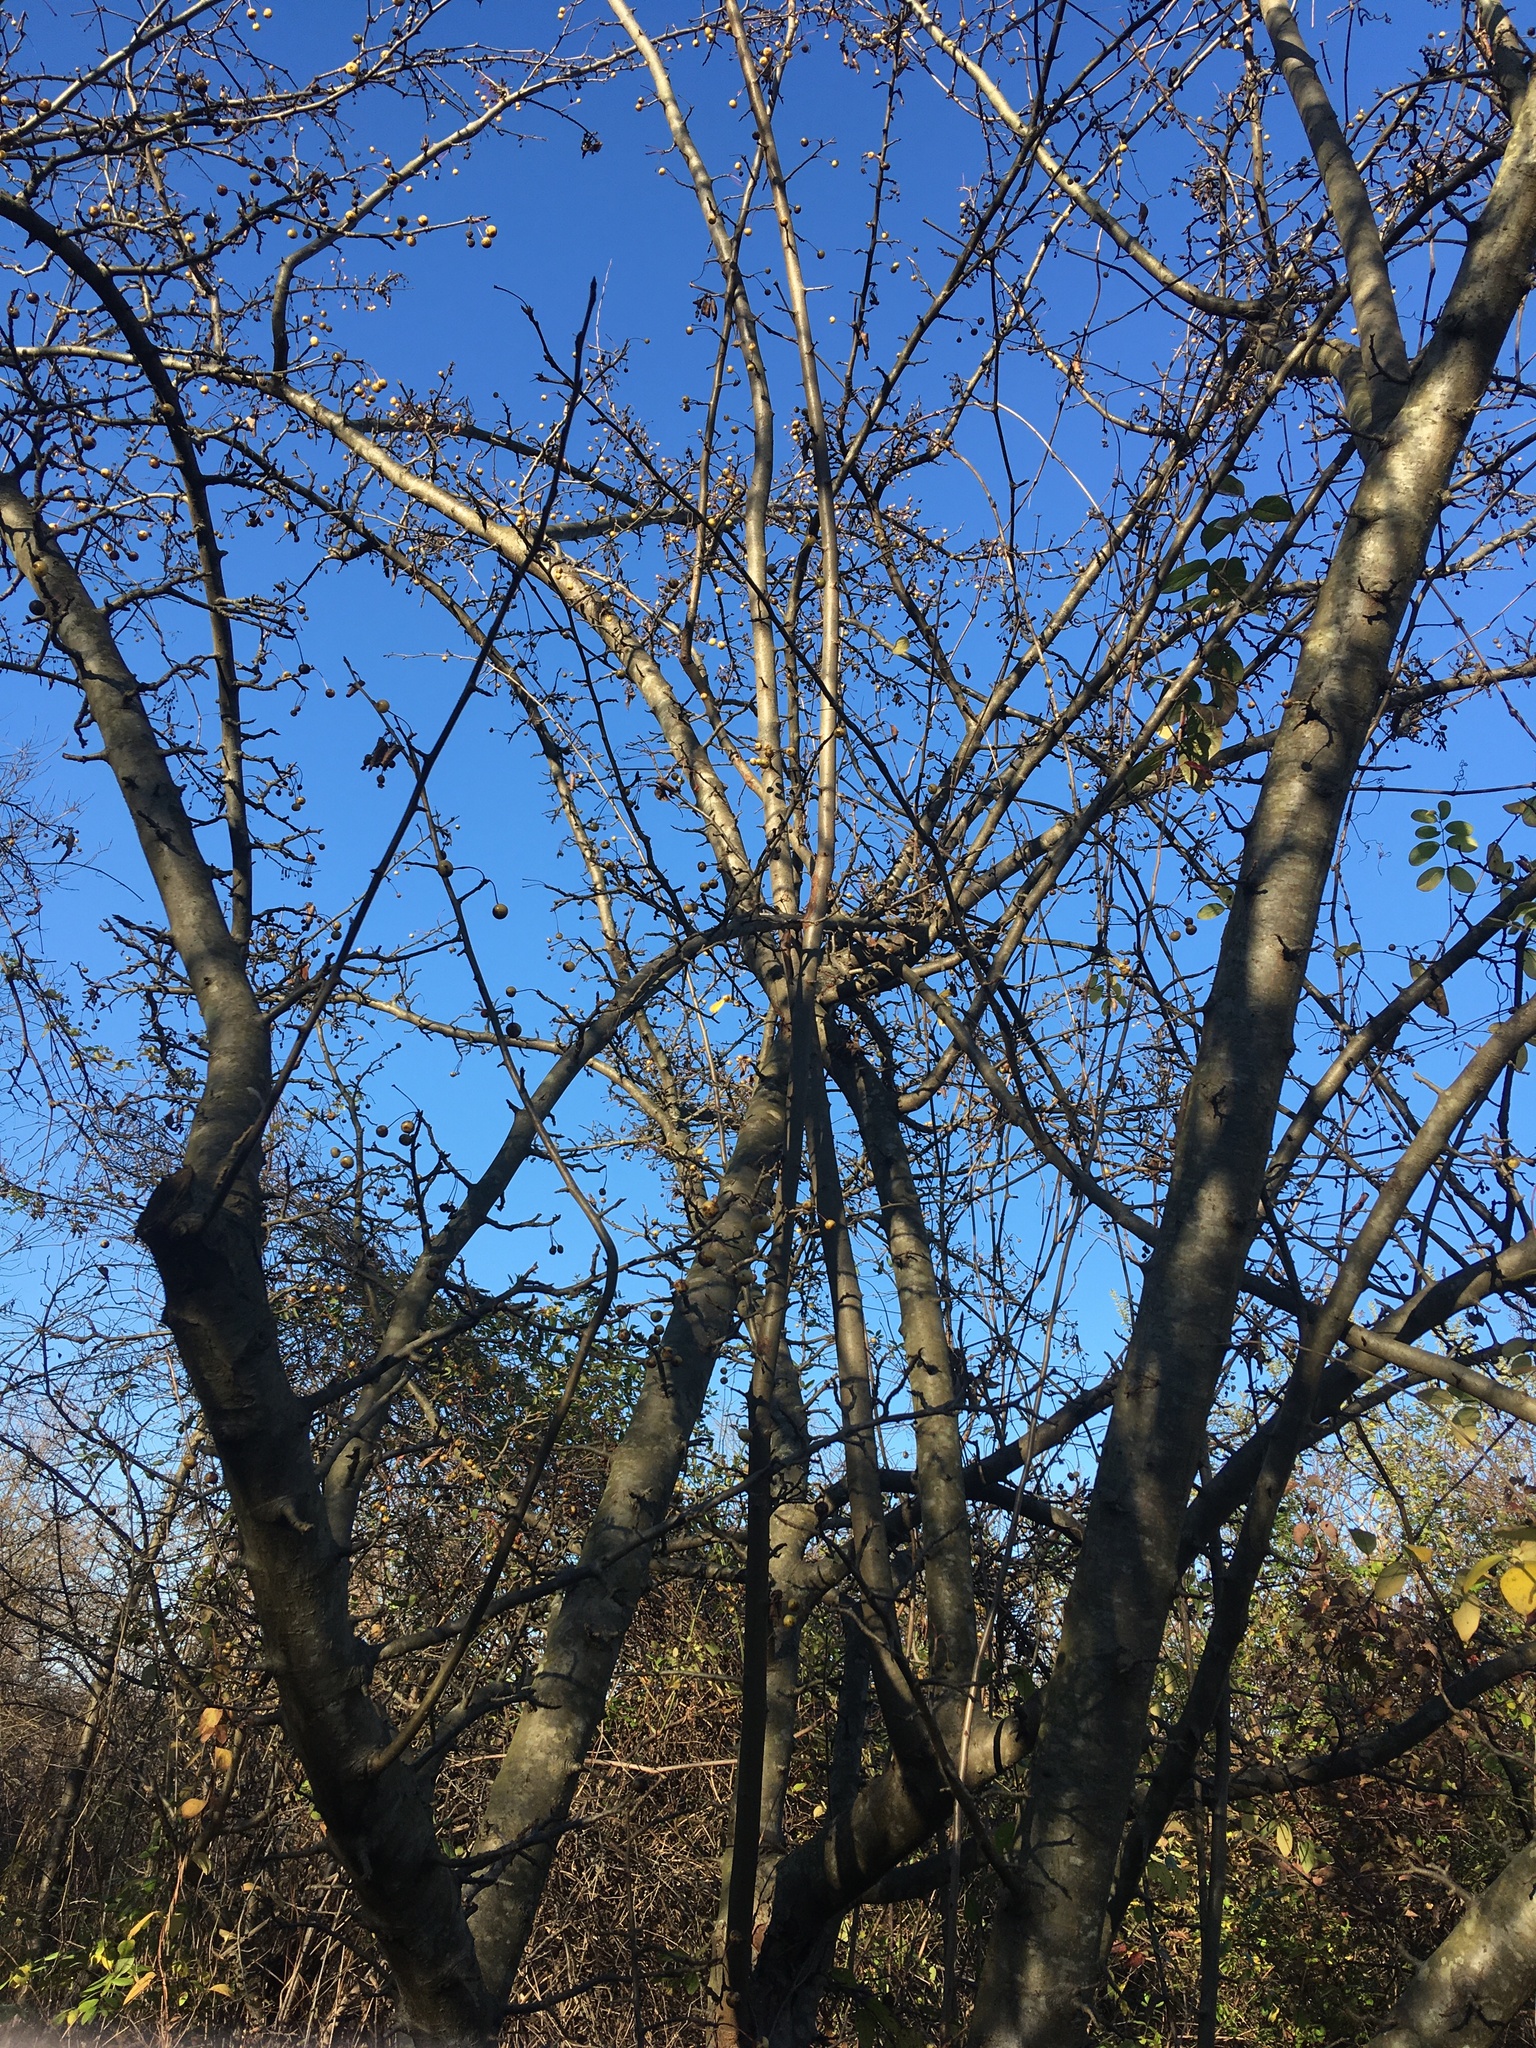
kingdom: Plantae
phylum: Tracheophyta
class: Magnoliopsida
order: Rosales
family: Rosaceae
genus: Malus
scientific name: Malus hupehensis
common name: Chinese crab apple
